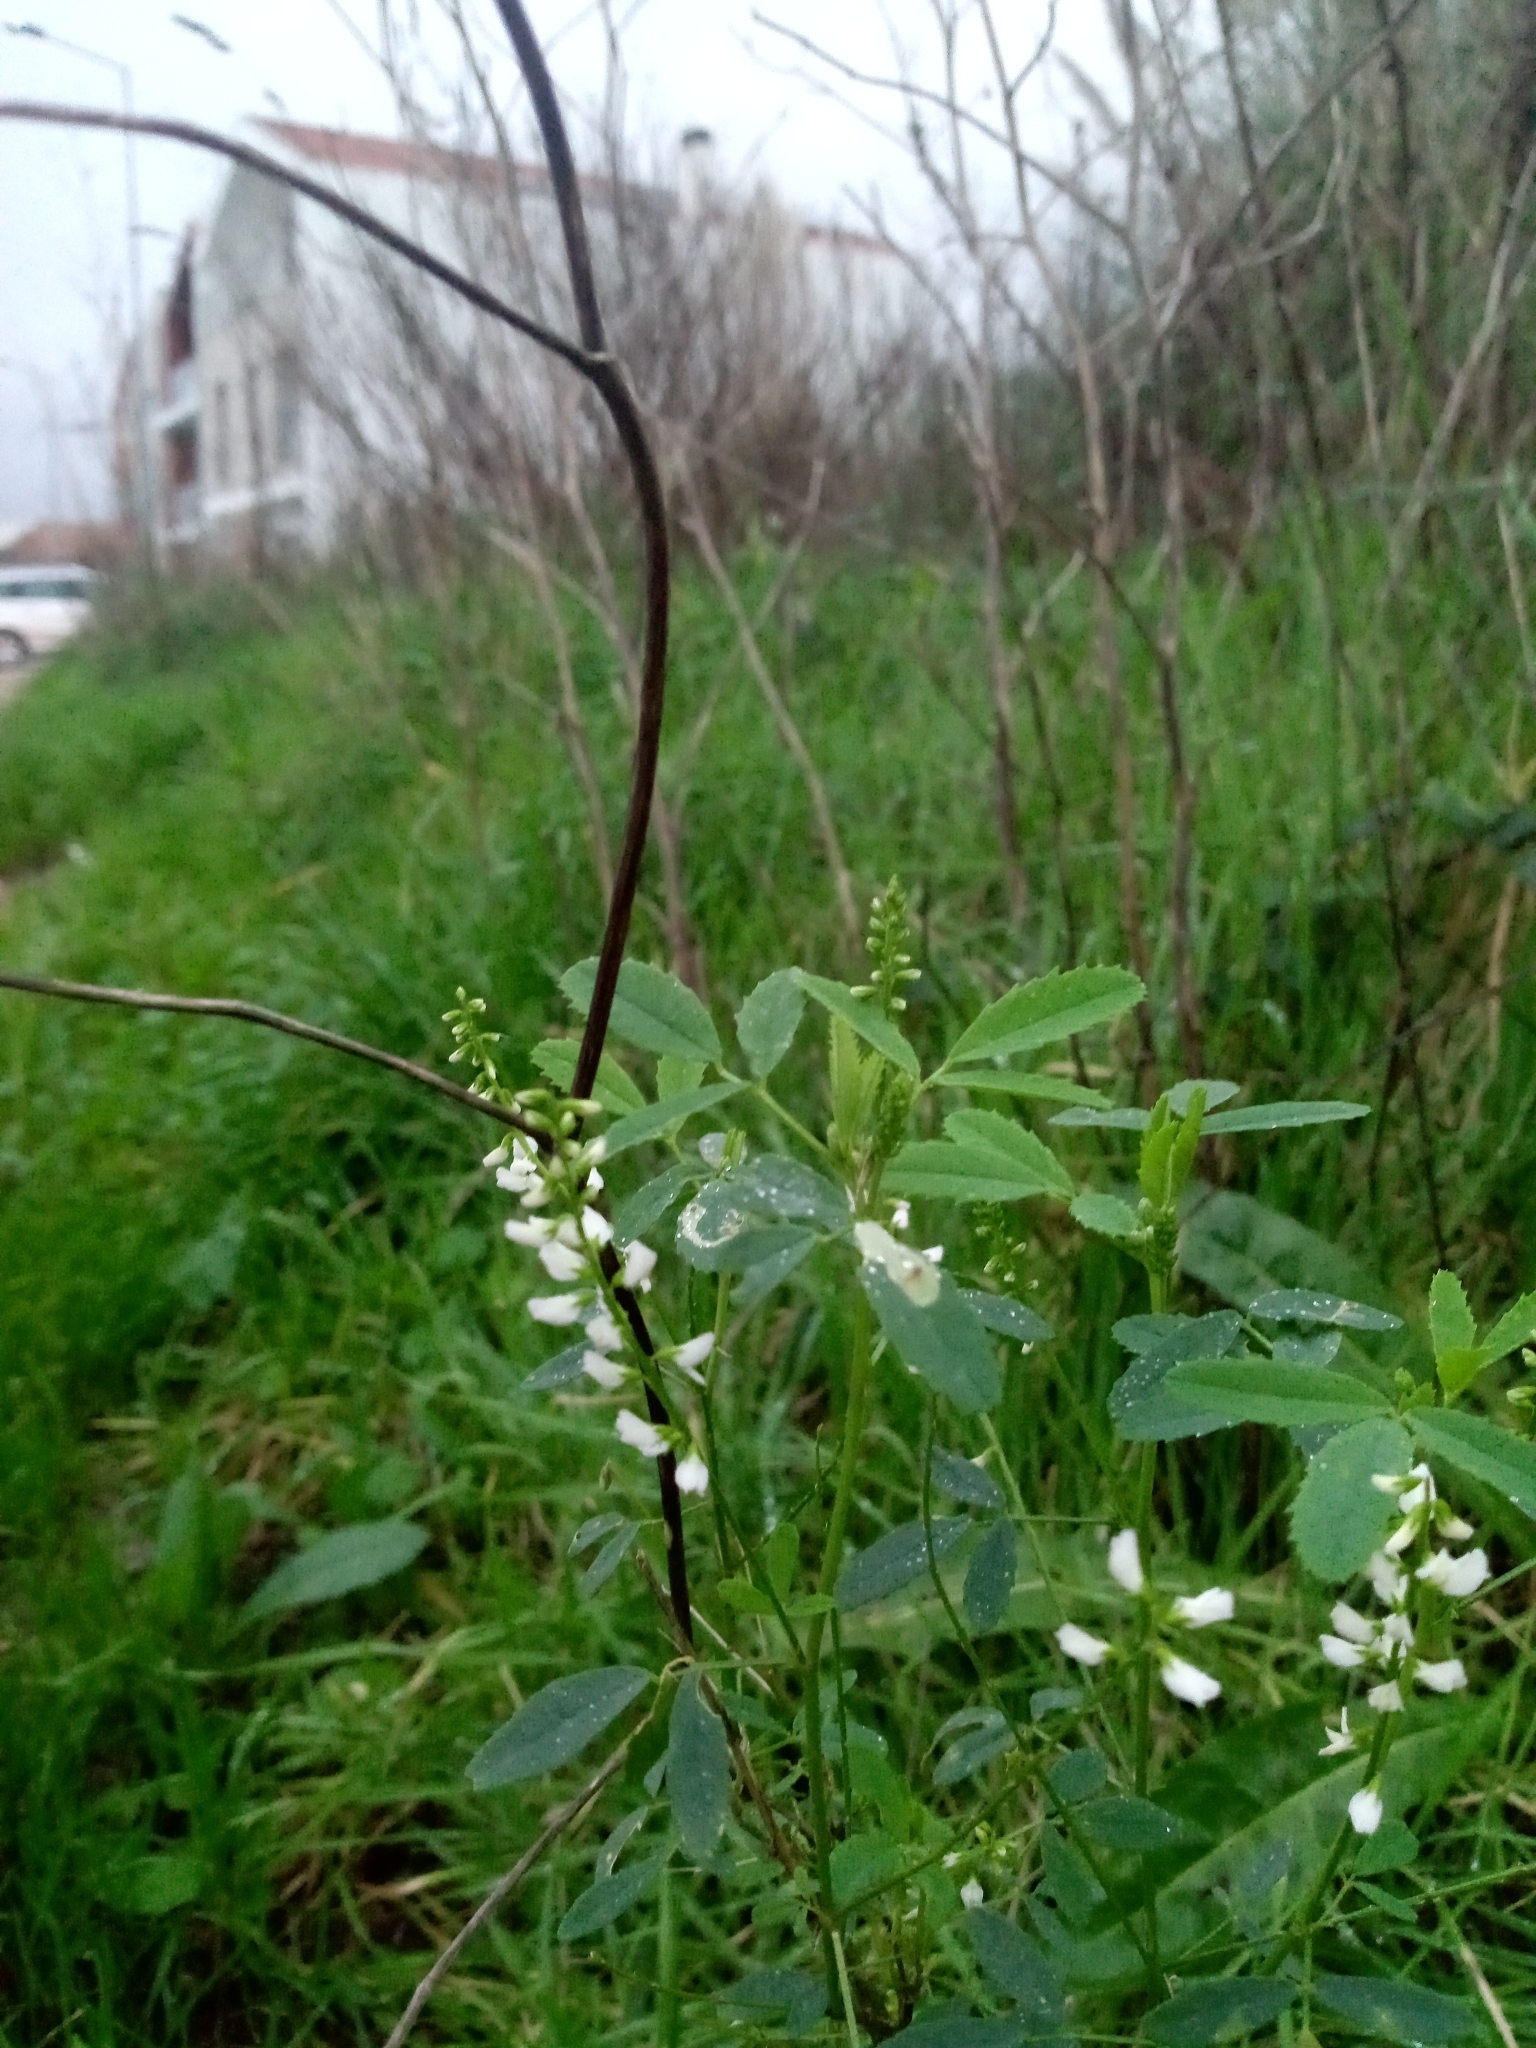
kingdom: Plantae
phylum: Tracheophyta
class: Magnoliopsida
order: Fabales
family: Fabaceae
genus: Melilotus
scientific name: Melilotus albus
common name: White melilot
